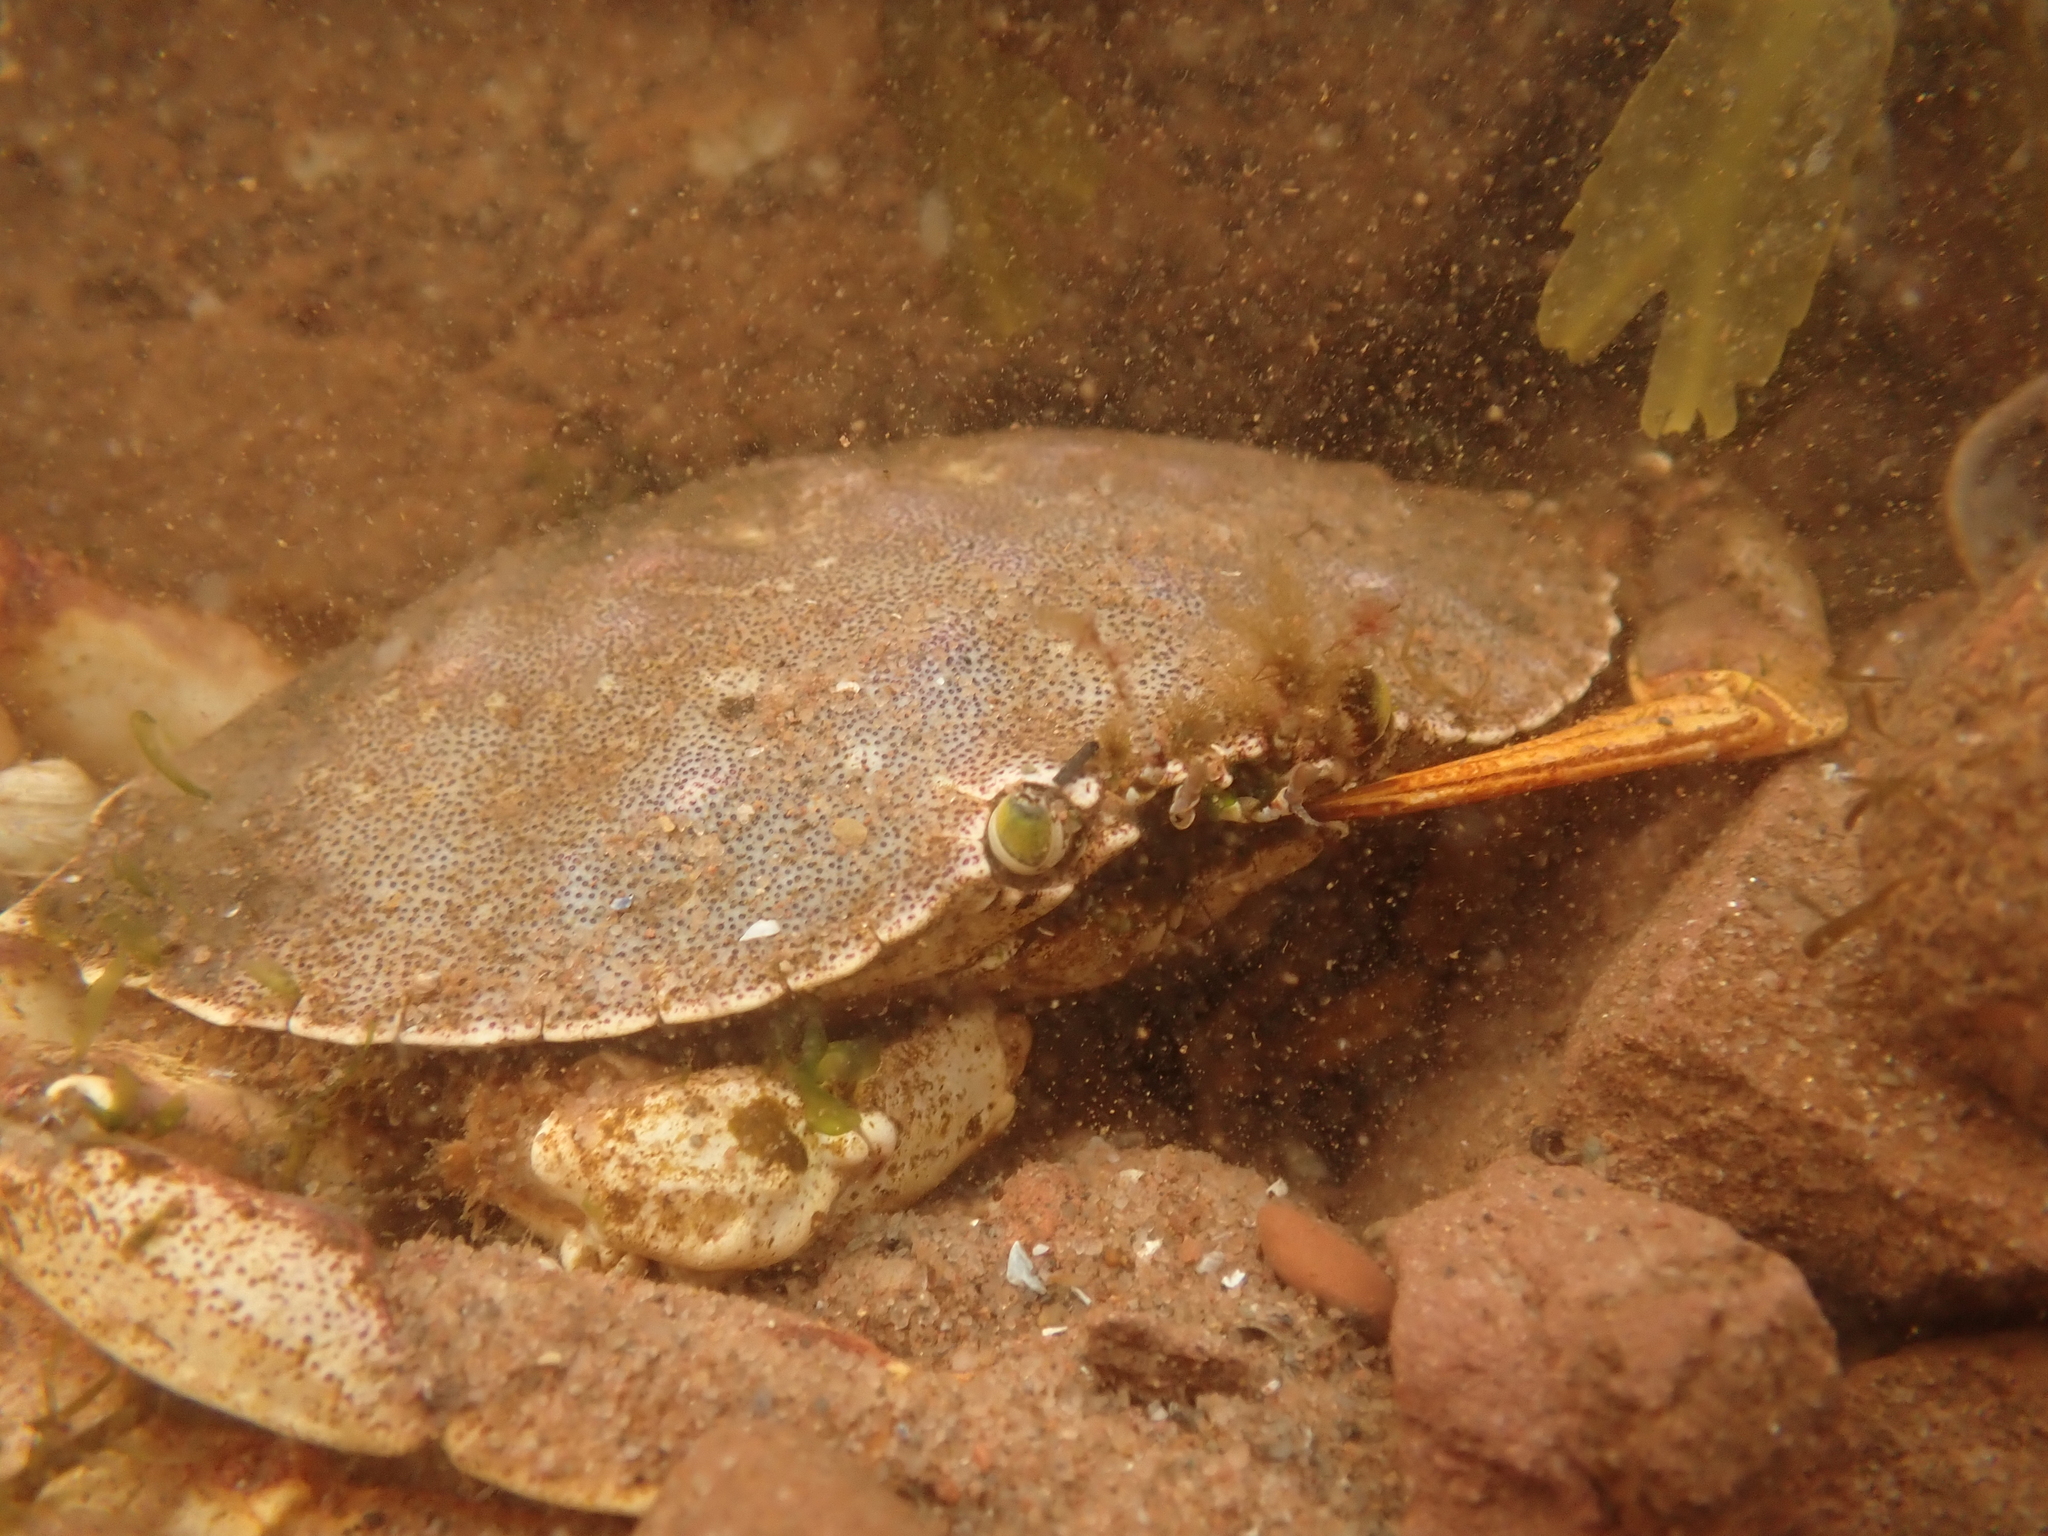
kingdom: Animalia
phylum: Arthropoda
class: Malacostraca
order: Decapoda
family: Cancridae
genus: Cancer
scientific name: Cancer irroratus
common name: Atlantic rock crab
